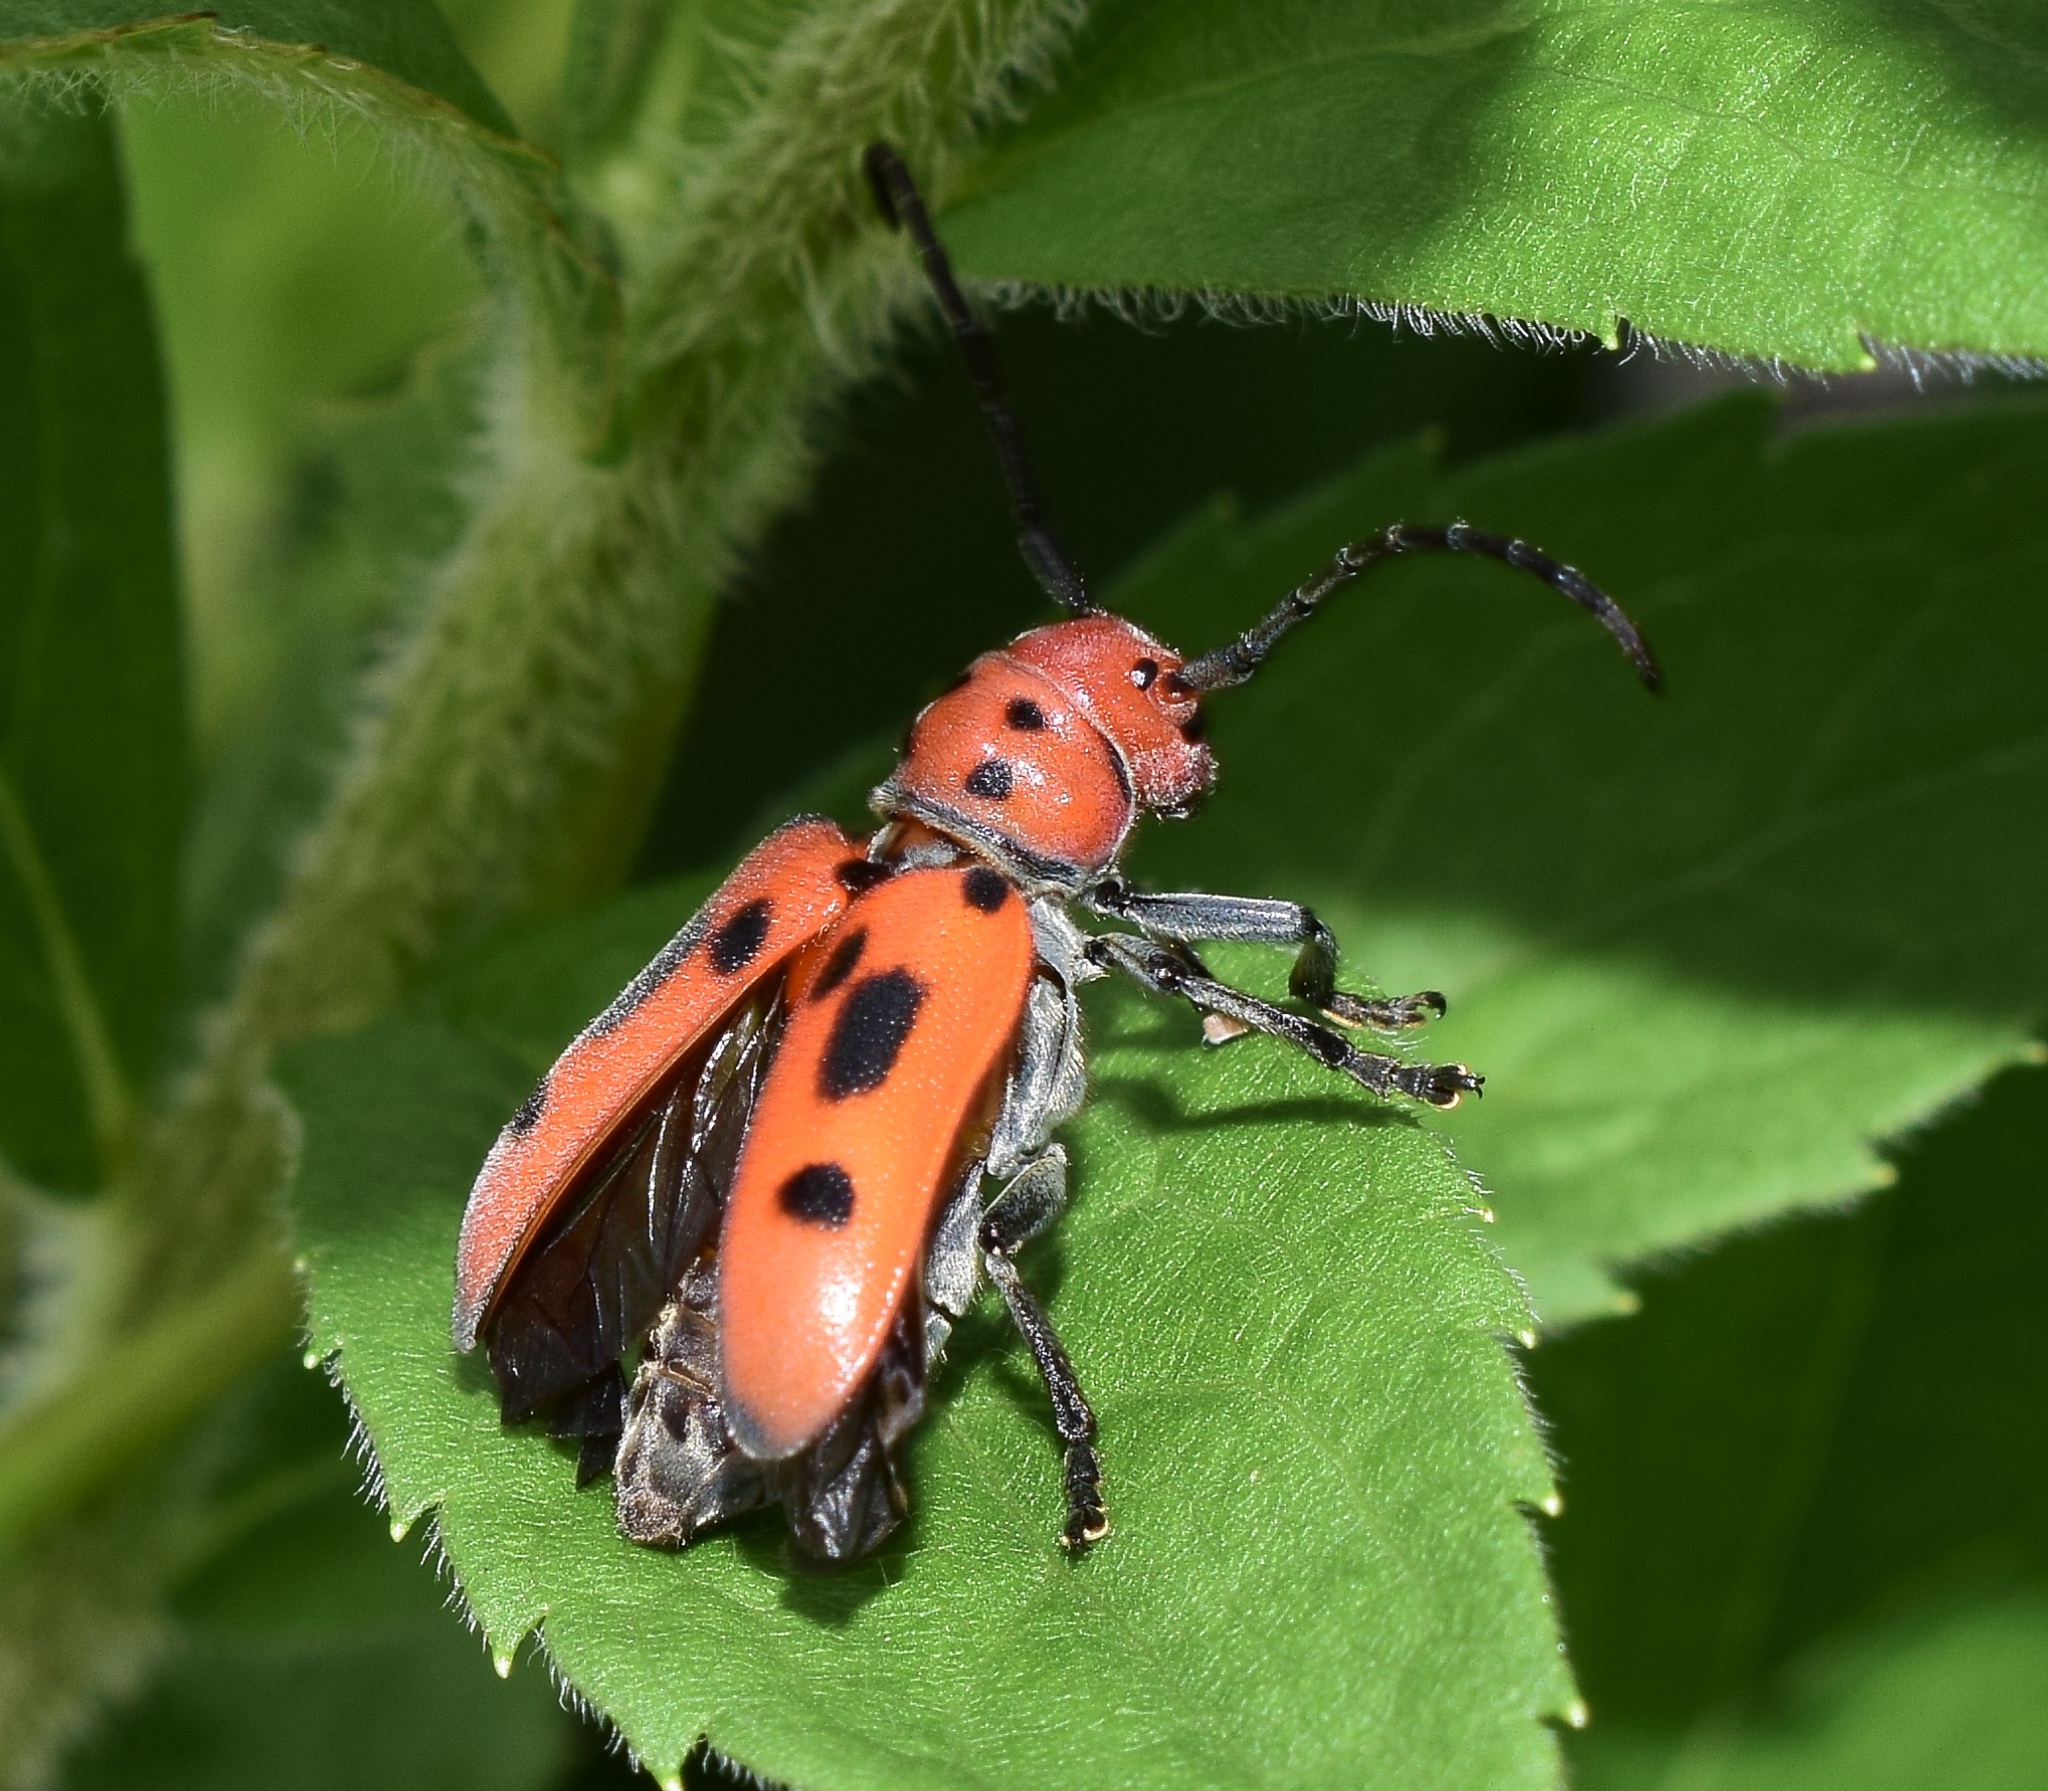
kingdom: Animalia
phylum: Arthropoda
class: Insecta
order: Coleoptera
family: Cerambycidae
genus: Tetraopes
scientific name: Tetraopes tetrophthalmus
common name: Red milkweed beetle
